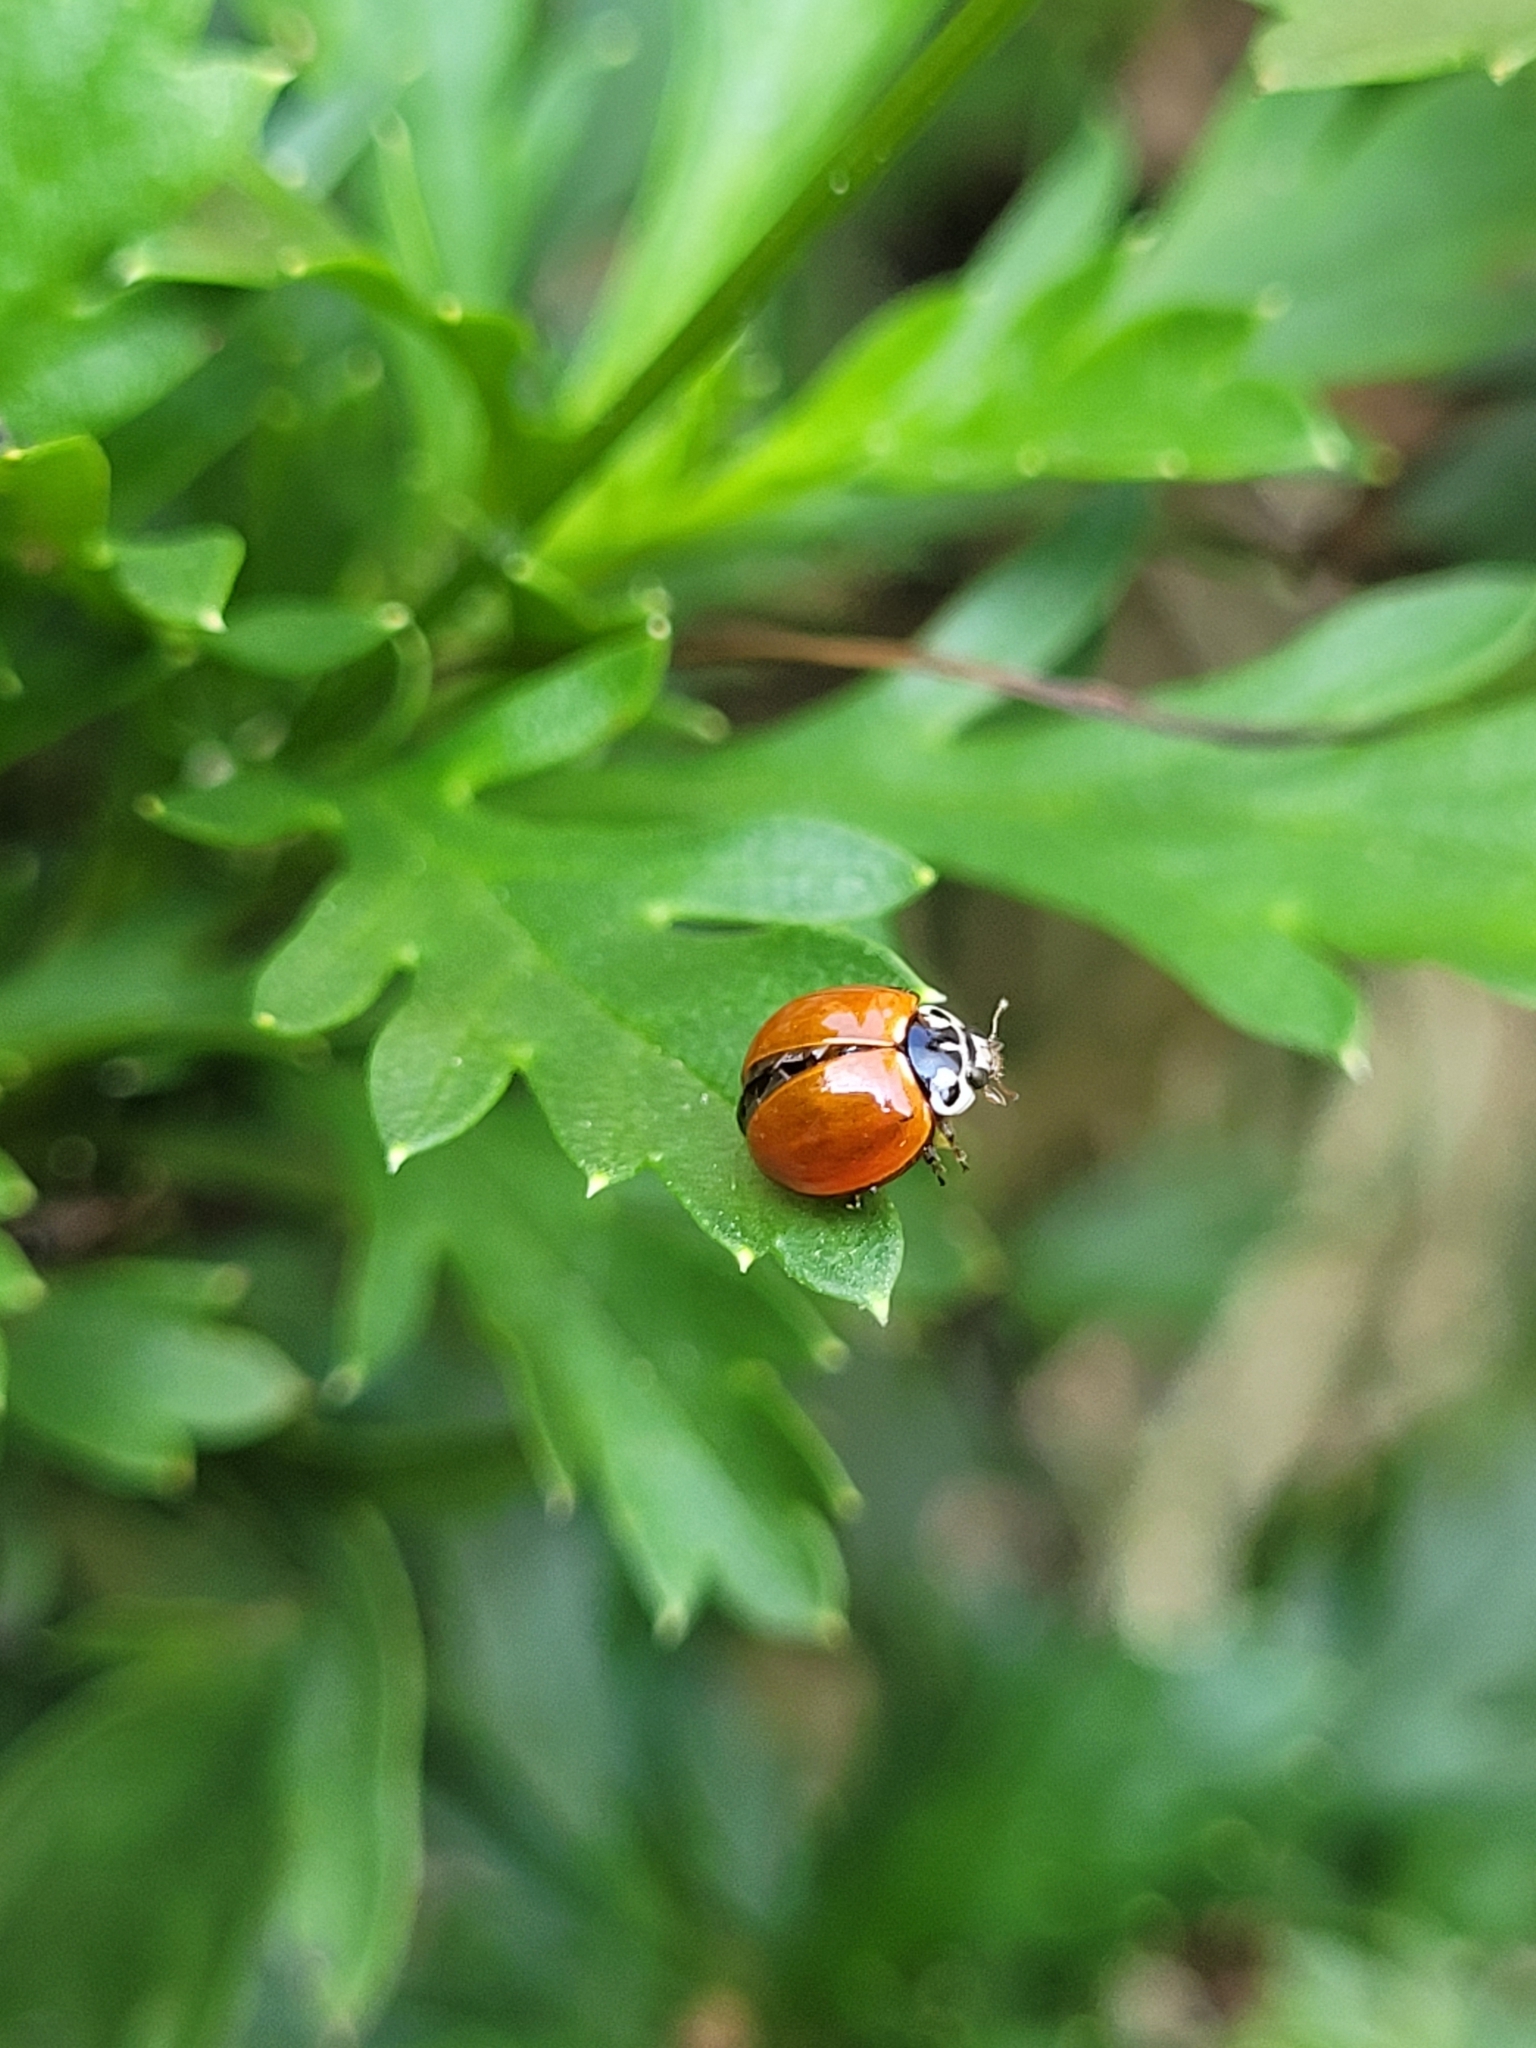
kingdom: Animalia
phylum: Arthropoda
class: Insecta
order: Coleoptera
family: Coccinellidae
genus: Cycloneda
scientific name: Cycloneda sanguinea
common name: Ladybird beetle
